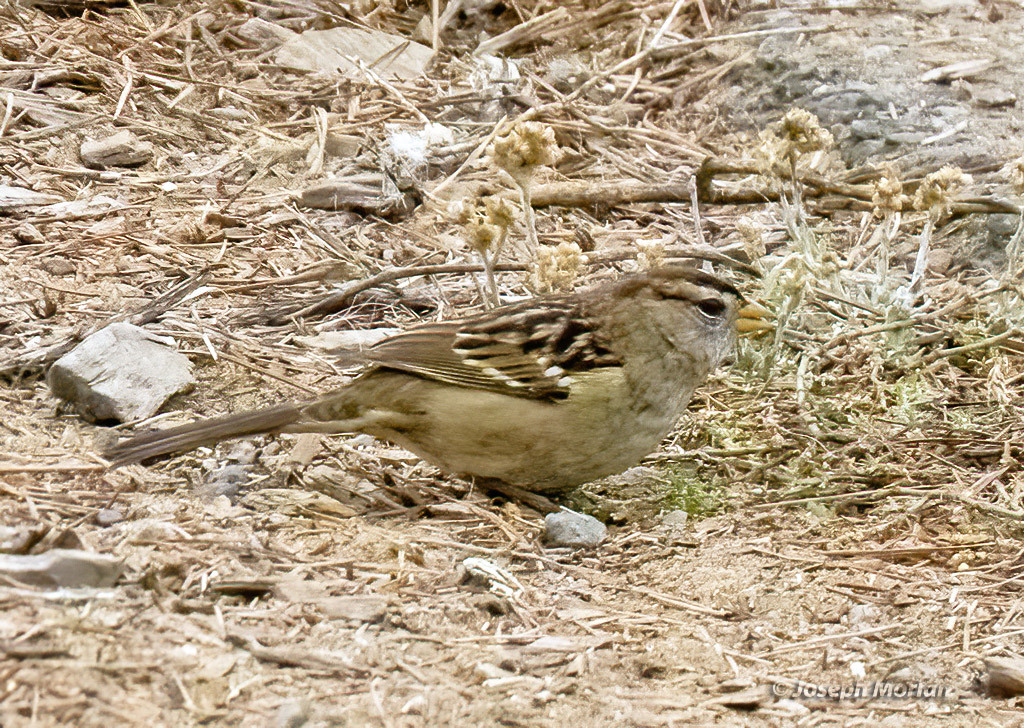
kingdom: Animalia
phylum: Chordata
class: Aves
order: Passeriformes
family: Passerellidae
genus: Zonotrichia
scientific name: Zonotrichia leucophrys
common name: White-crowned sparrow
